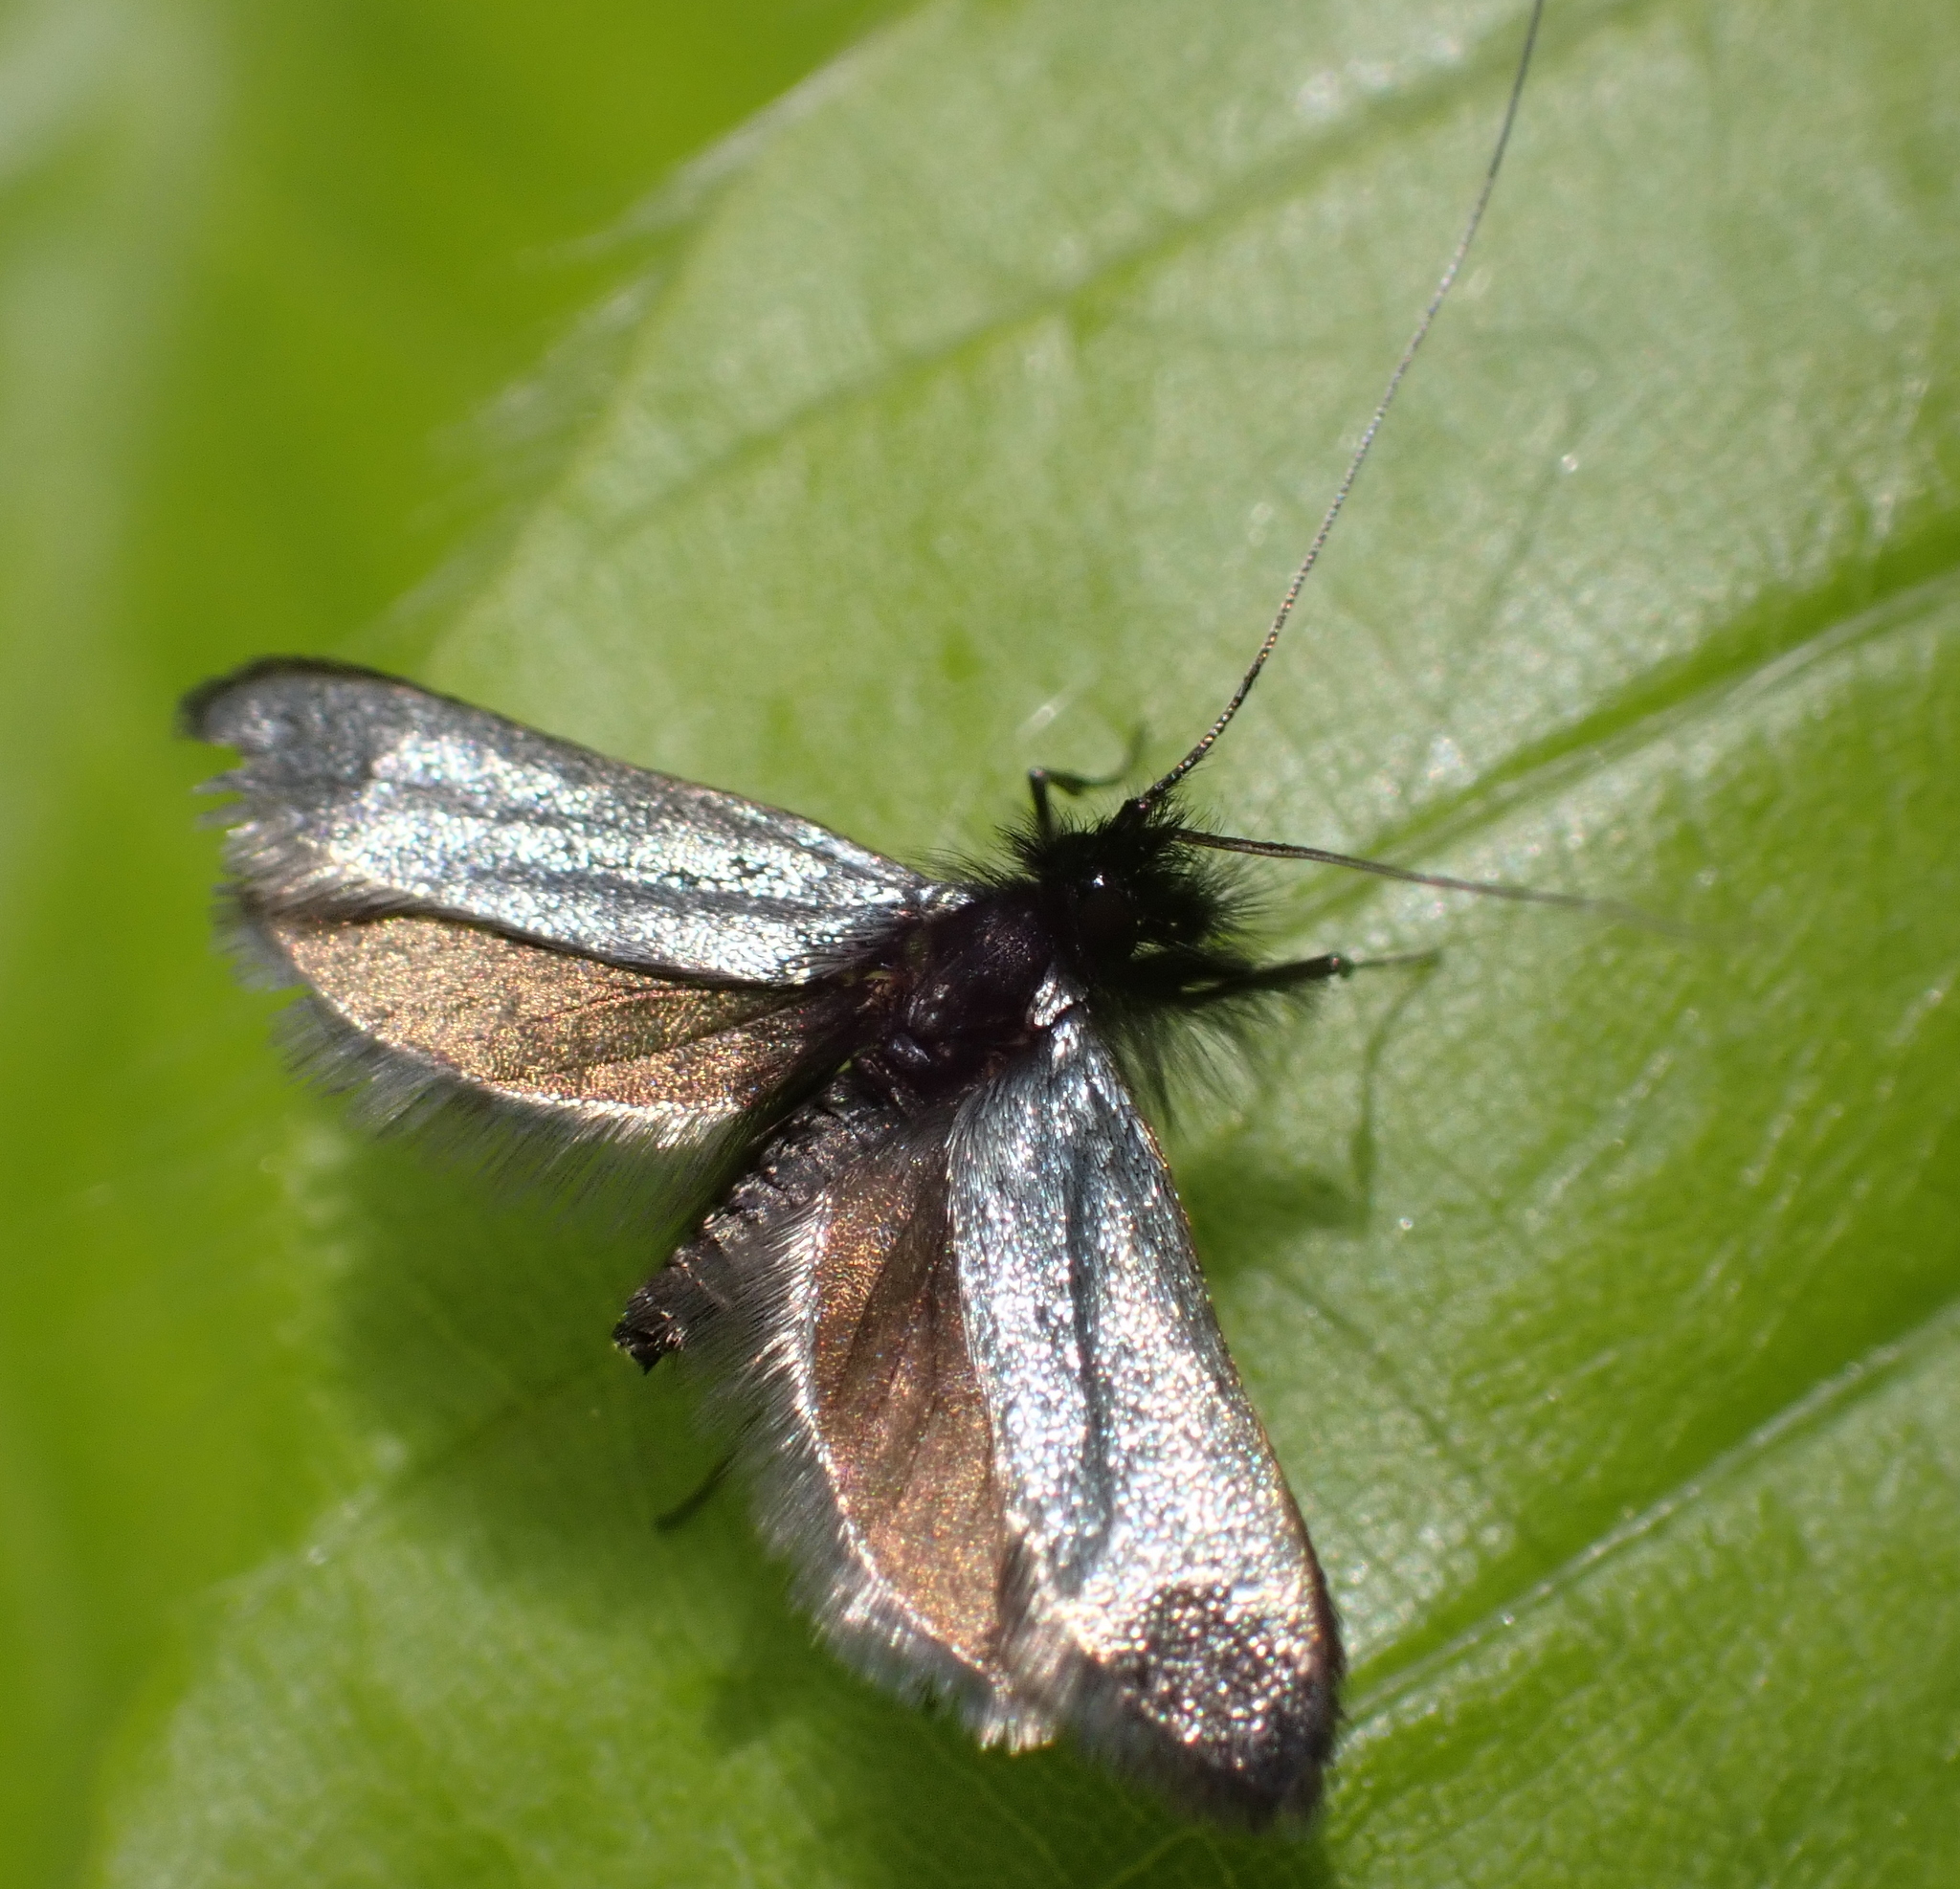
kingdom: Animalia
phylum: Arthropoda
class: Insecta
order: Lepidoptera
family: Adelidae
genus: Adela
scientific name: Adela viridella
